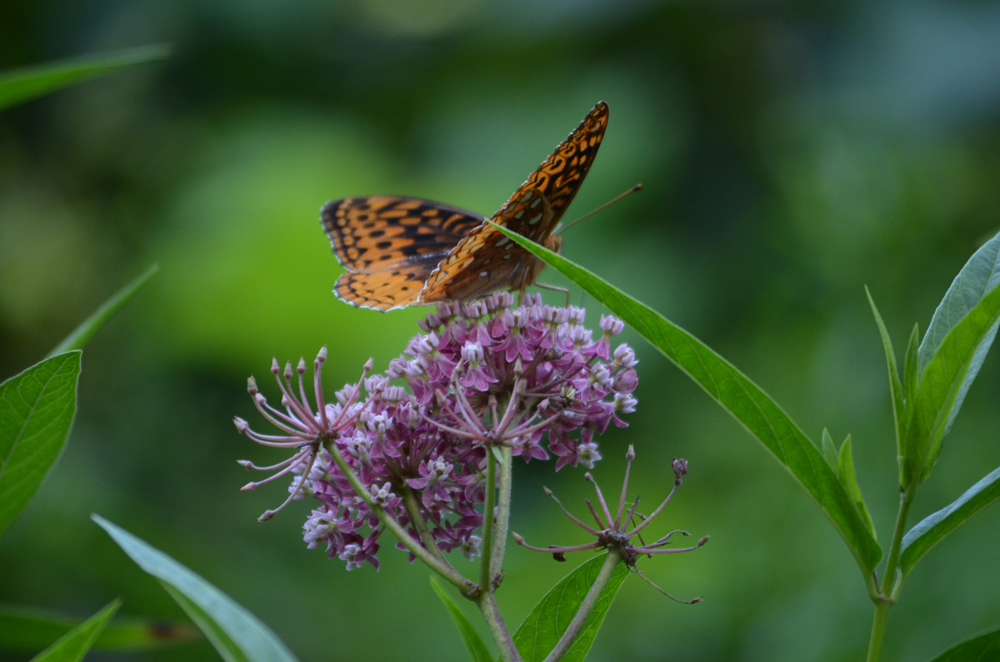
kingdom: Animalia
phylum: Arthropoda
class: Insecta
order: Lepidoptera
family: Nymphalidae
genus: Speyeria
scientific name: Speyeria cybele
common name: Great spangled fritillary
